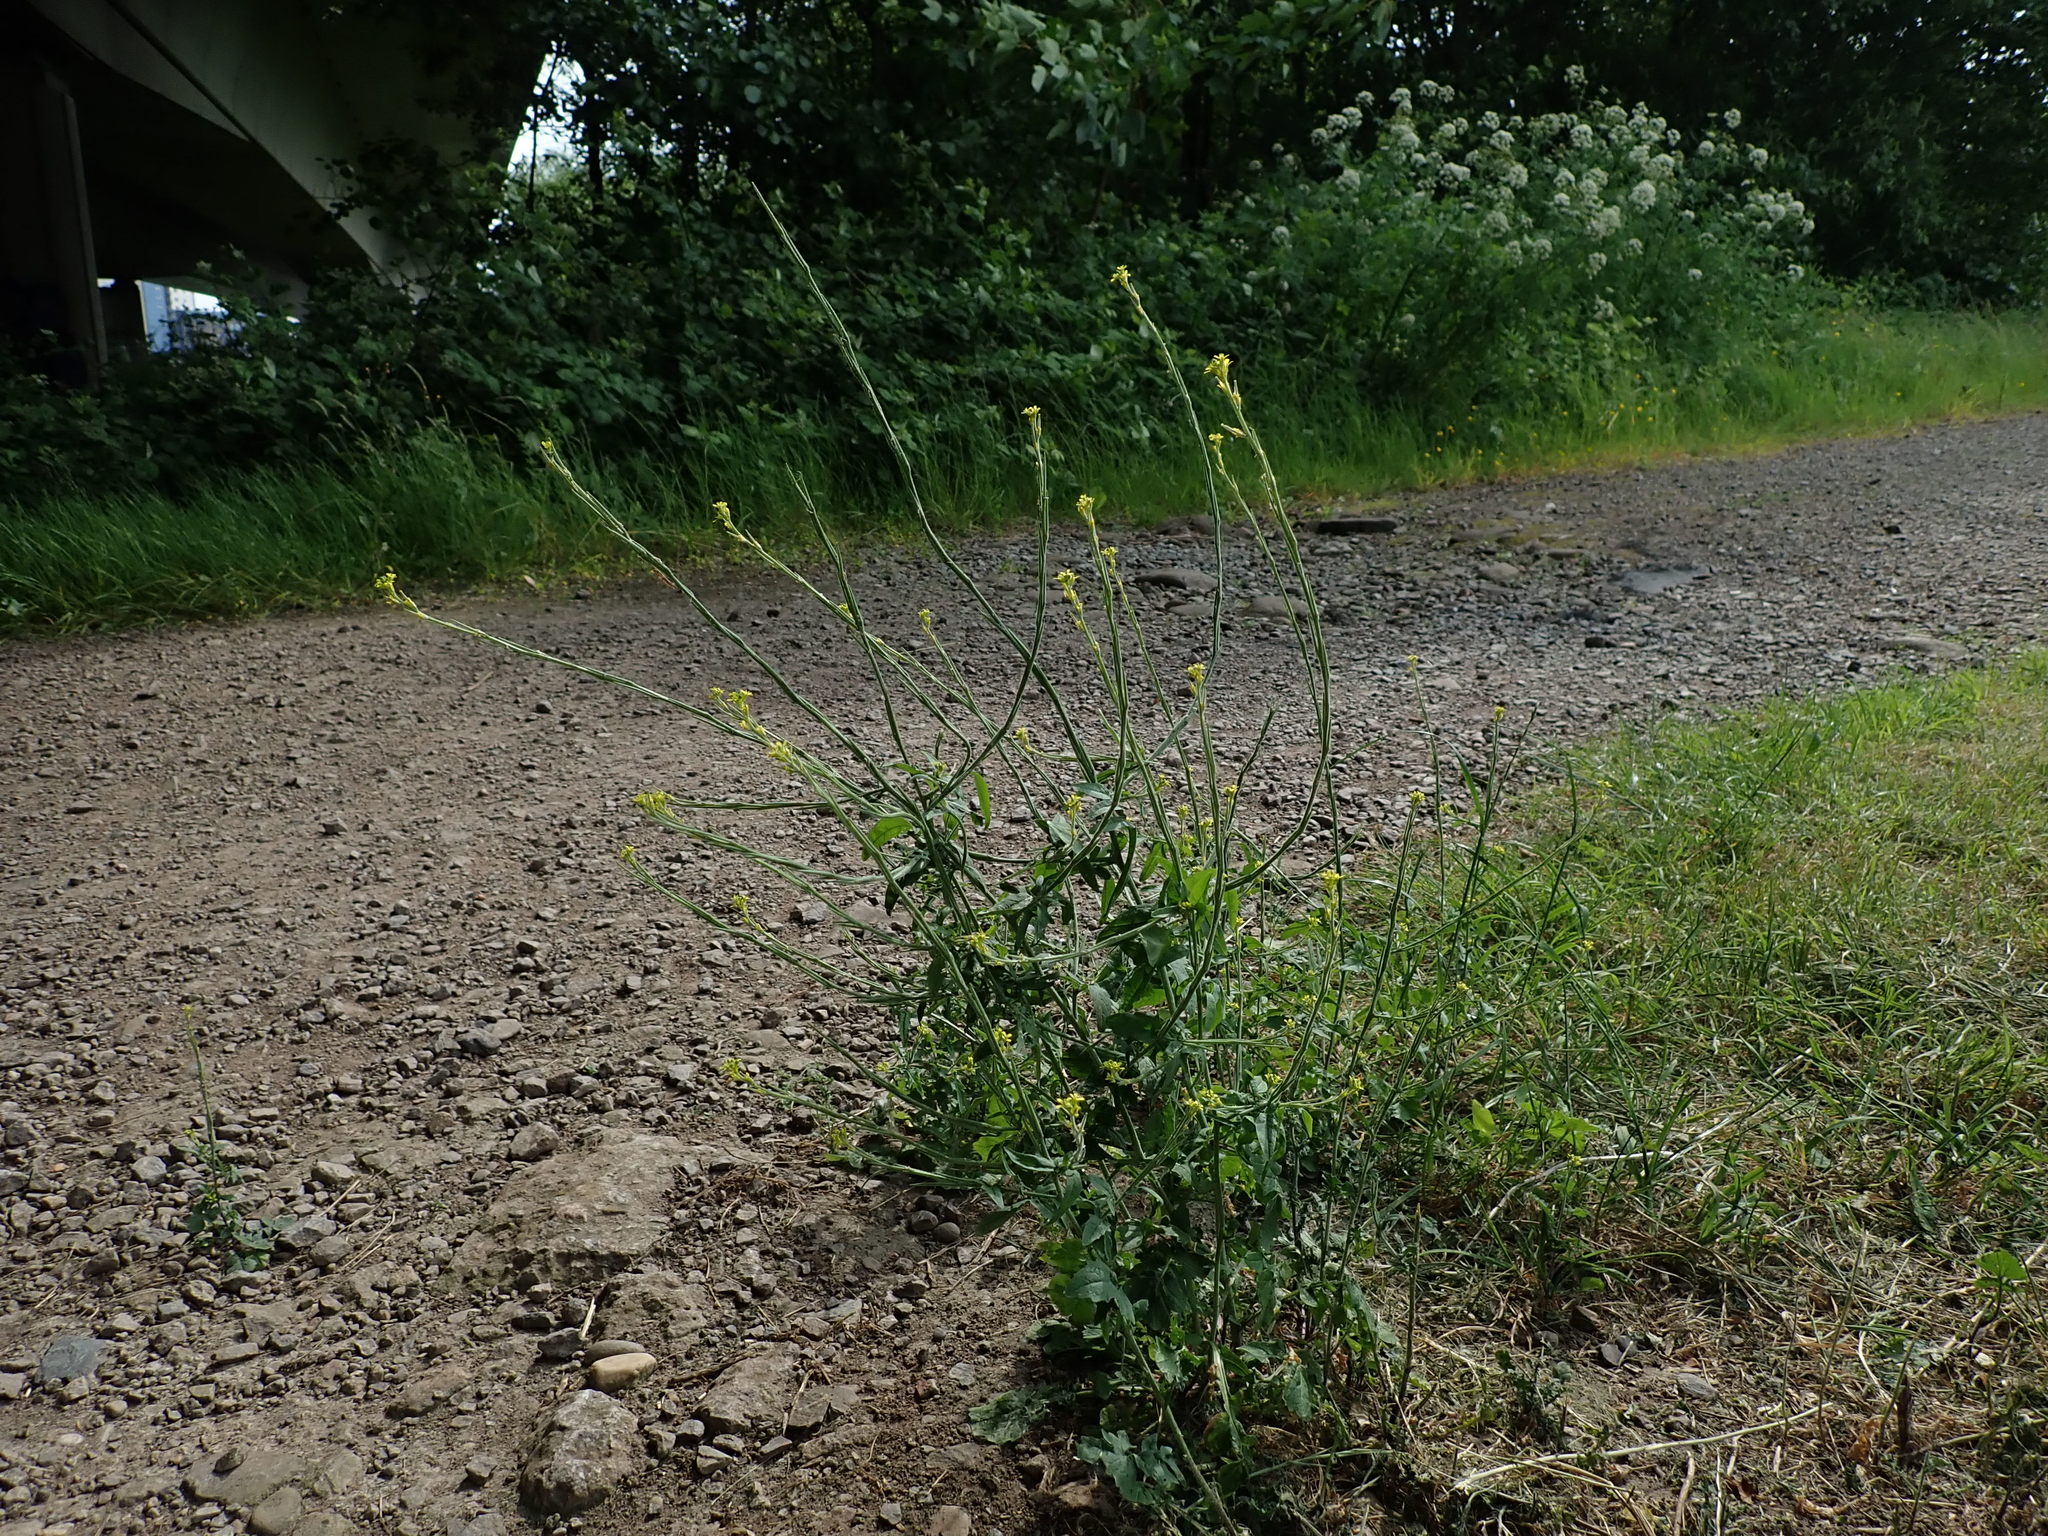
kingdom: Plantae
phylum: Tracheophyta
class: Magnoliopsida
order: Brassicales
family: Brassicaceae
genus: Sisymbrium
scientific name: Sisymbrium officinale
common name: Hedge mustard
